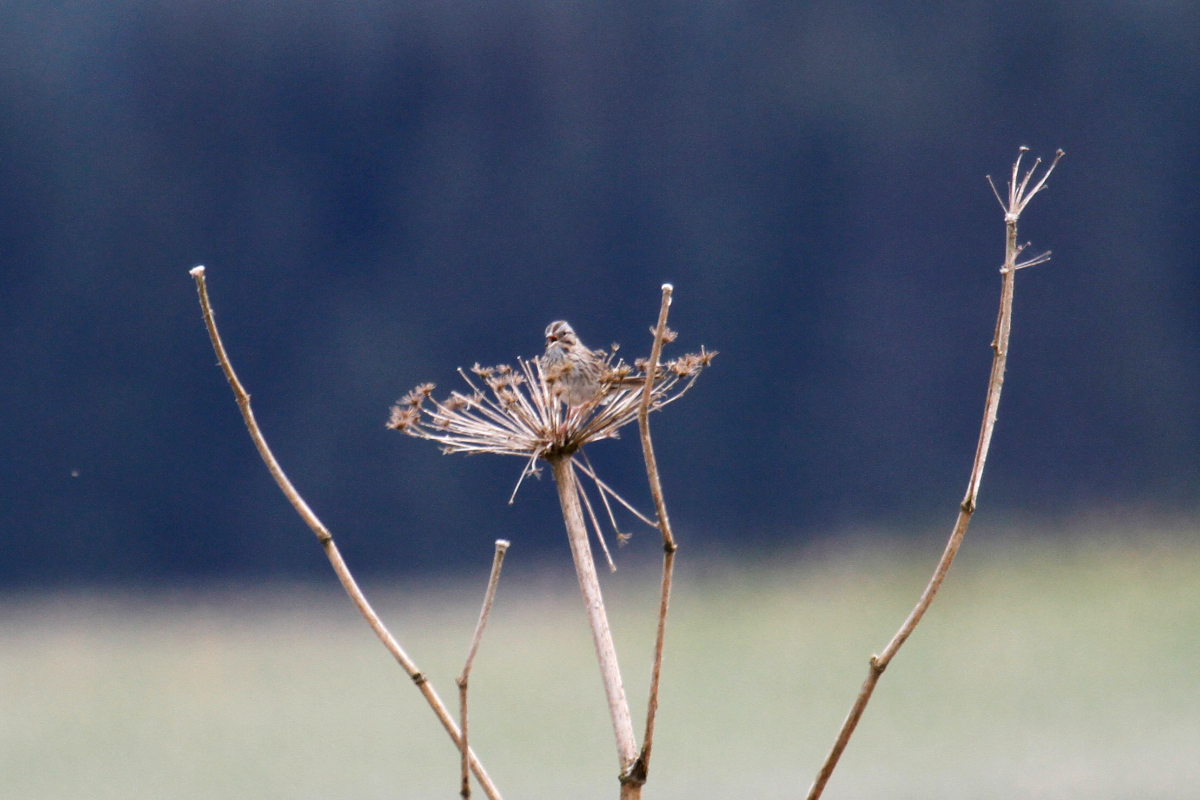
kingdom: Animalia
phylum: Chordata
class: Aves
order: Passeriformes
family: Passerellidae
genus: Melospiza
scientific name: Melospiza lincolnii
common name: Lincoln's sparrow
